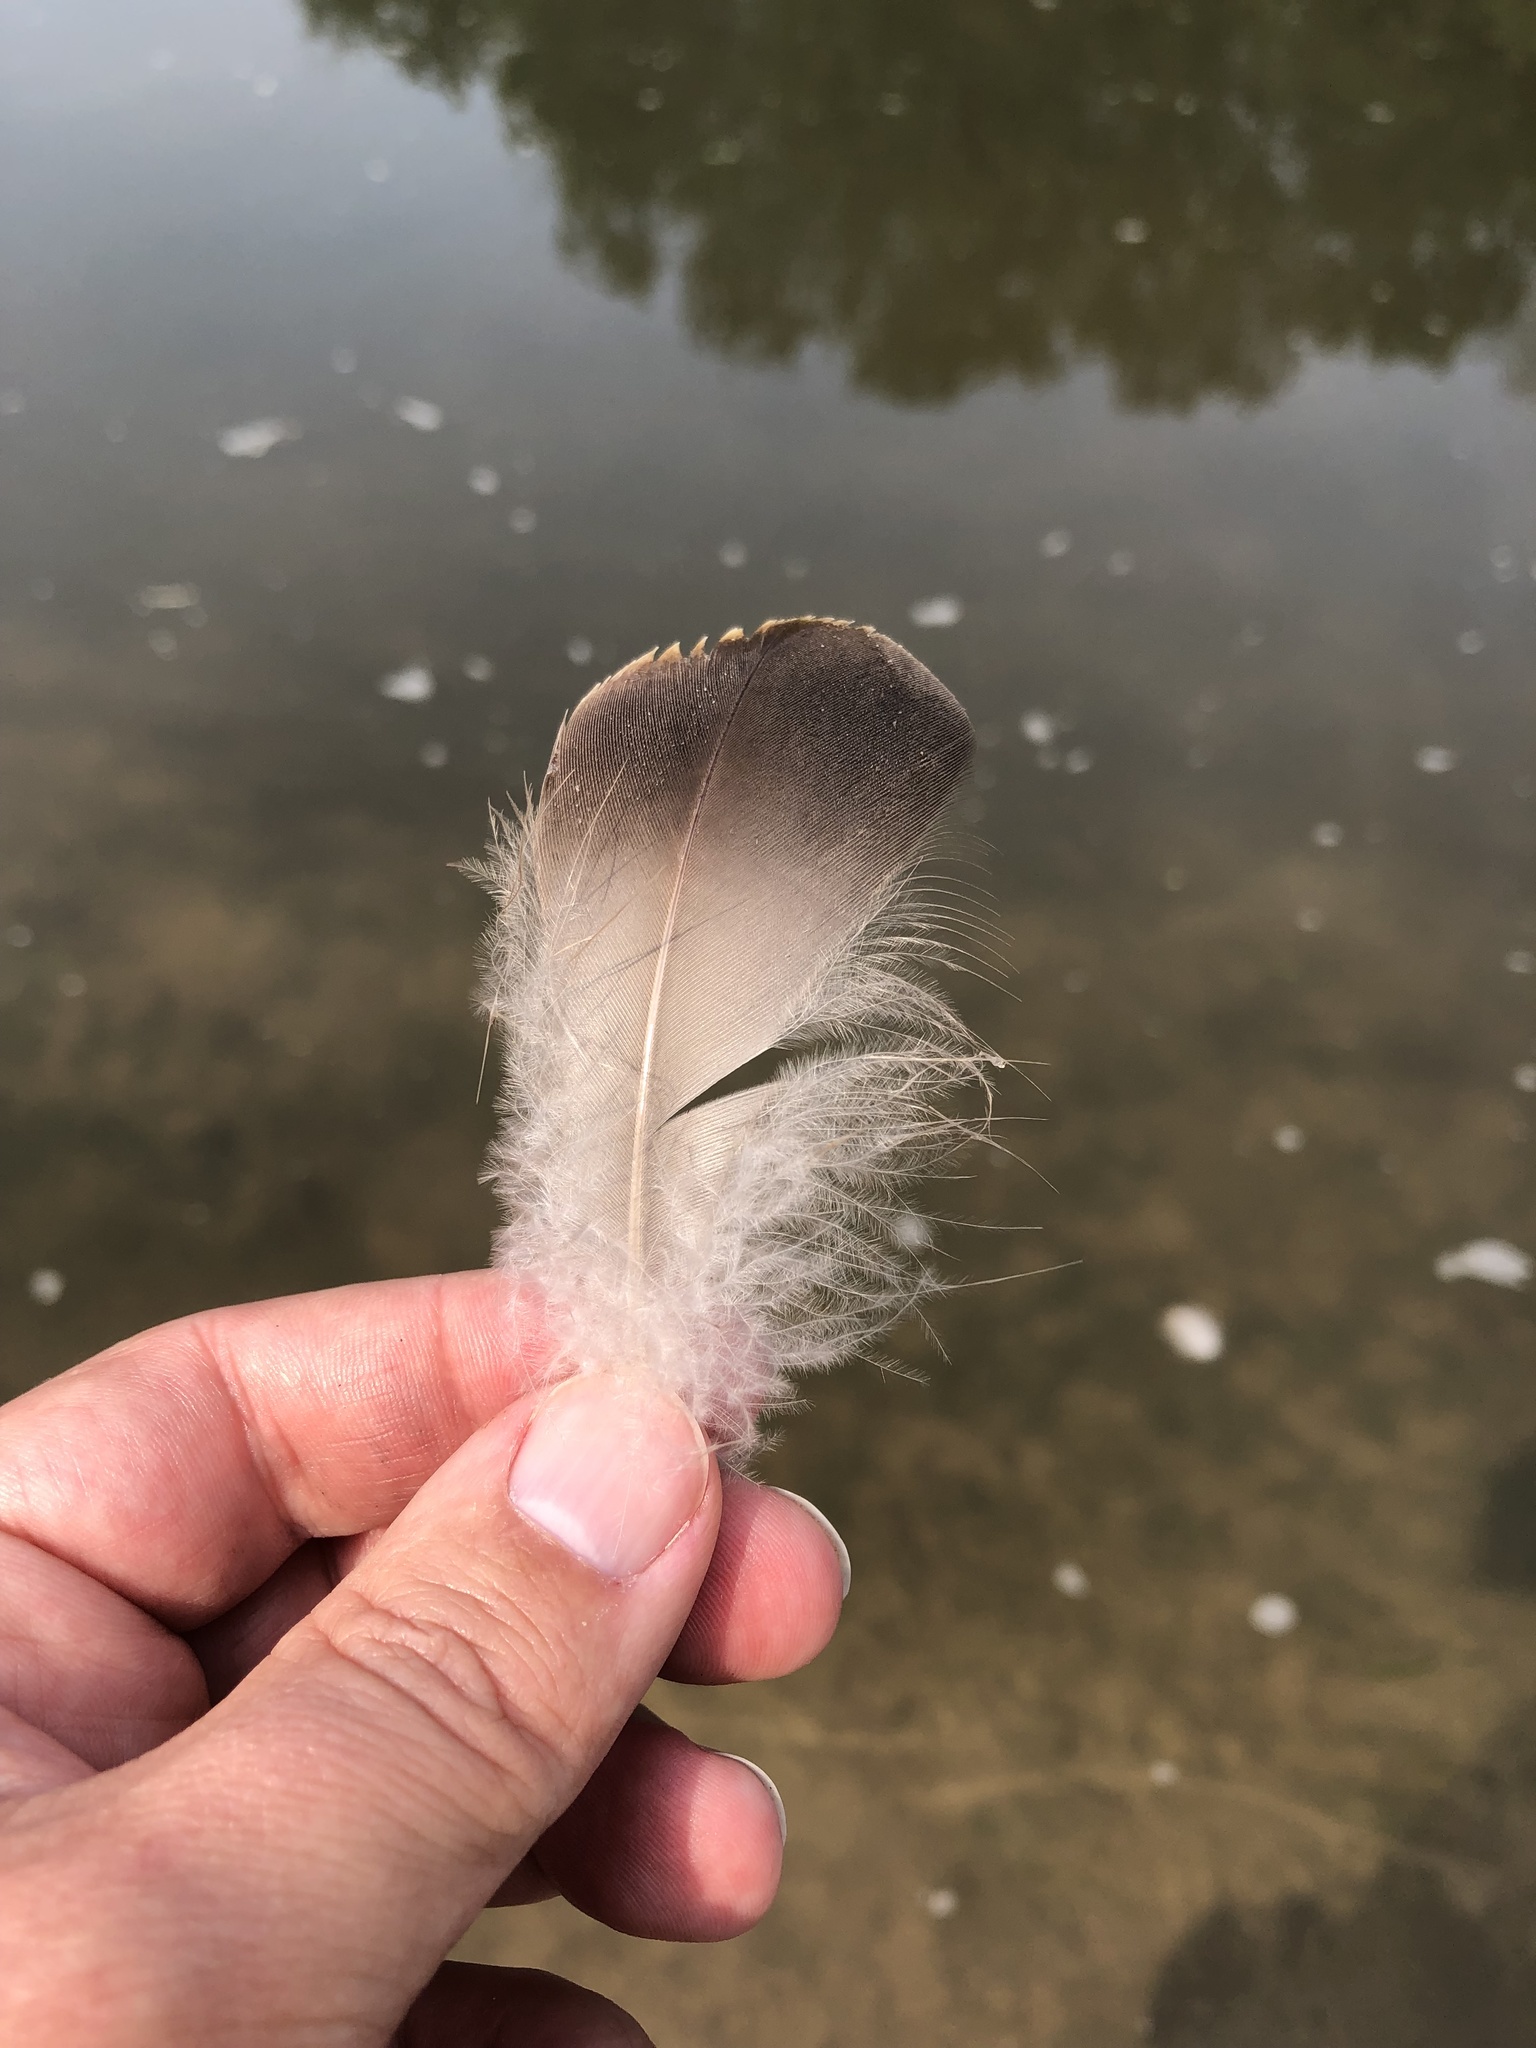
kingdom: Animalia
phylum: Chordata
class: Aves
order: Anseriformes
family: Anatidae
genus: Branta
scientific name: Branta canadensis
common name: Canada goose
